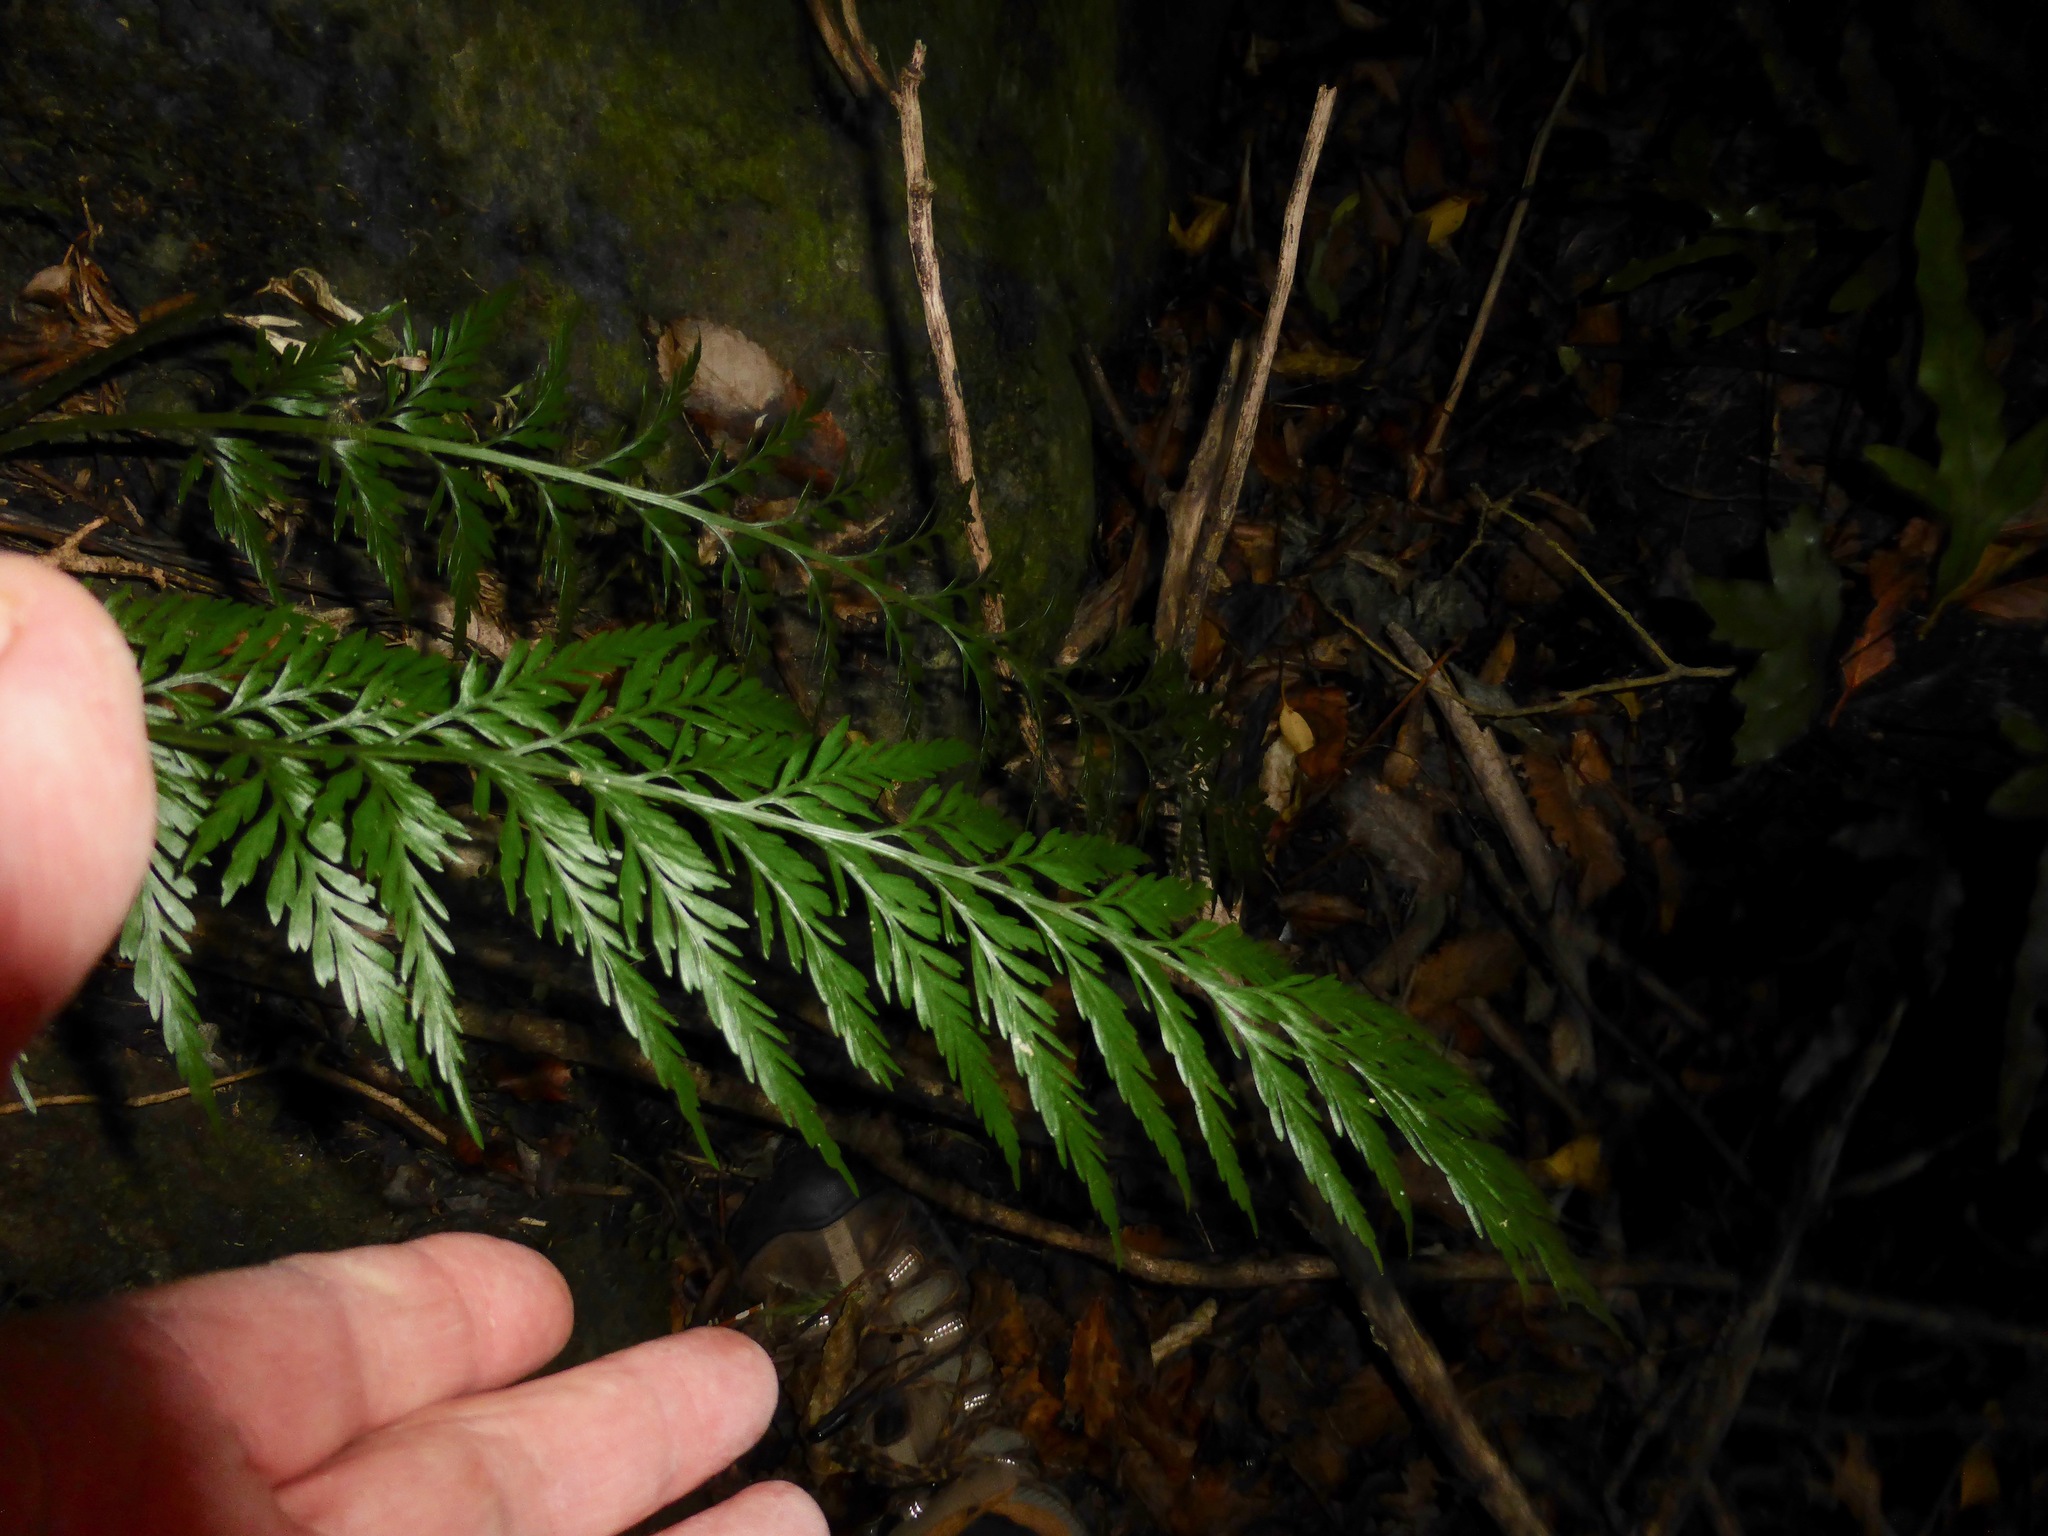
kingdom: Plantae
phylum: Tracheophyta
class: Polypodiopsida
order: Polypodiales
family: Aspleniaceae
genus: Asplenium
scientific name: Asplenium appendiculatum
